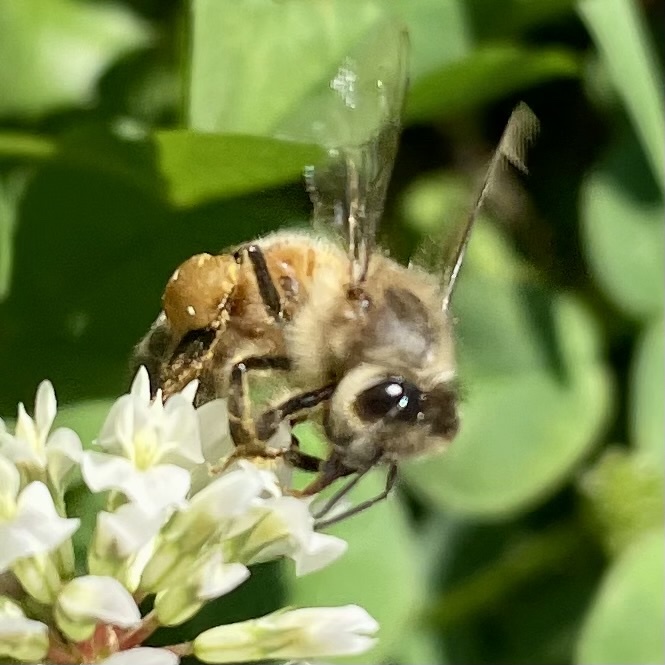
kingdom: Animalia
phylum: Arthropoda
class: Insecta
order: Hymenoptera
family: Apidae
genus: Apis
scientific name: Apis mellifera
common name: Honey bee
